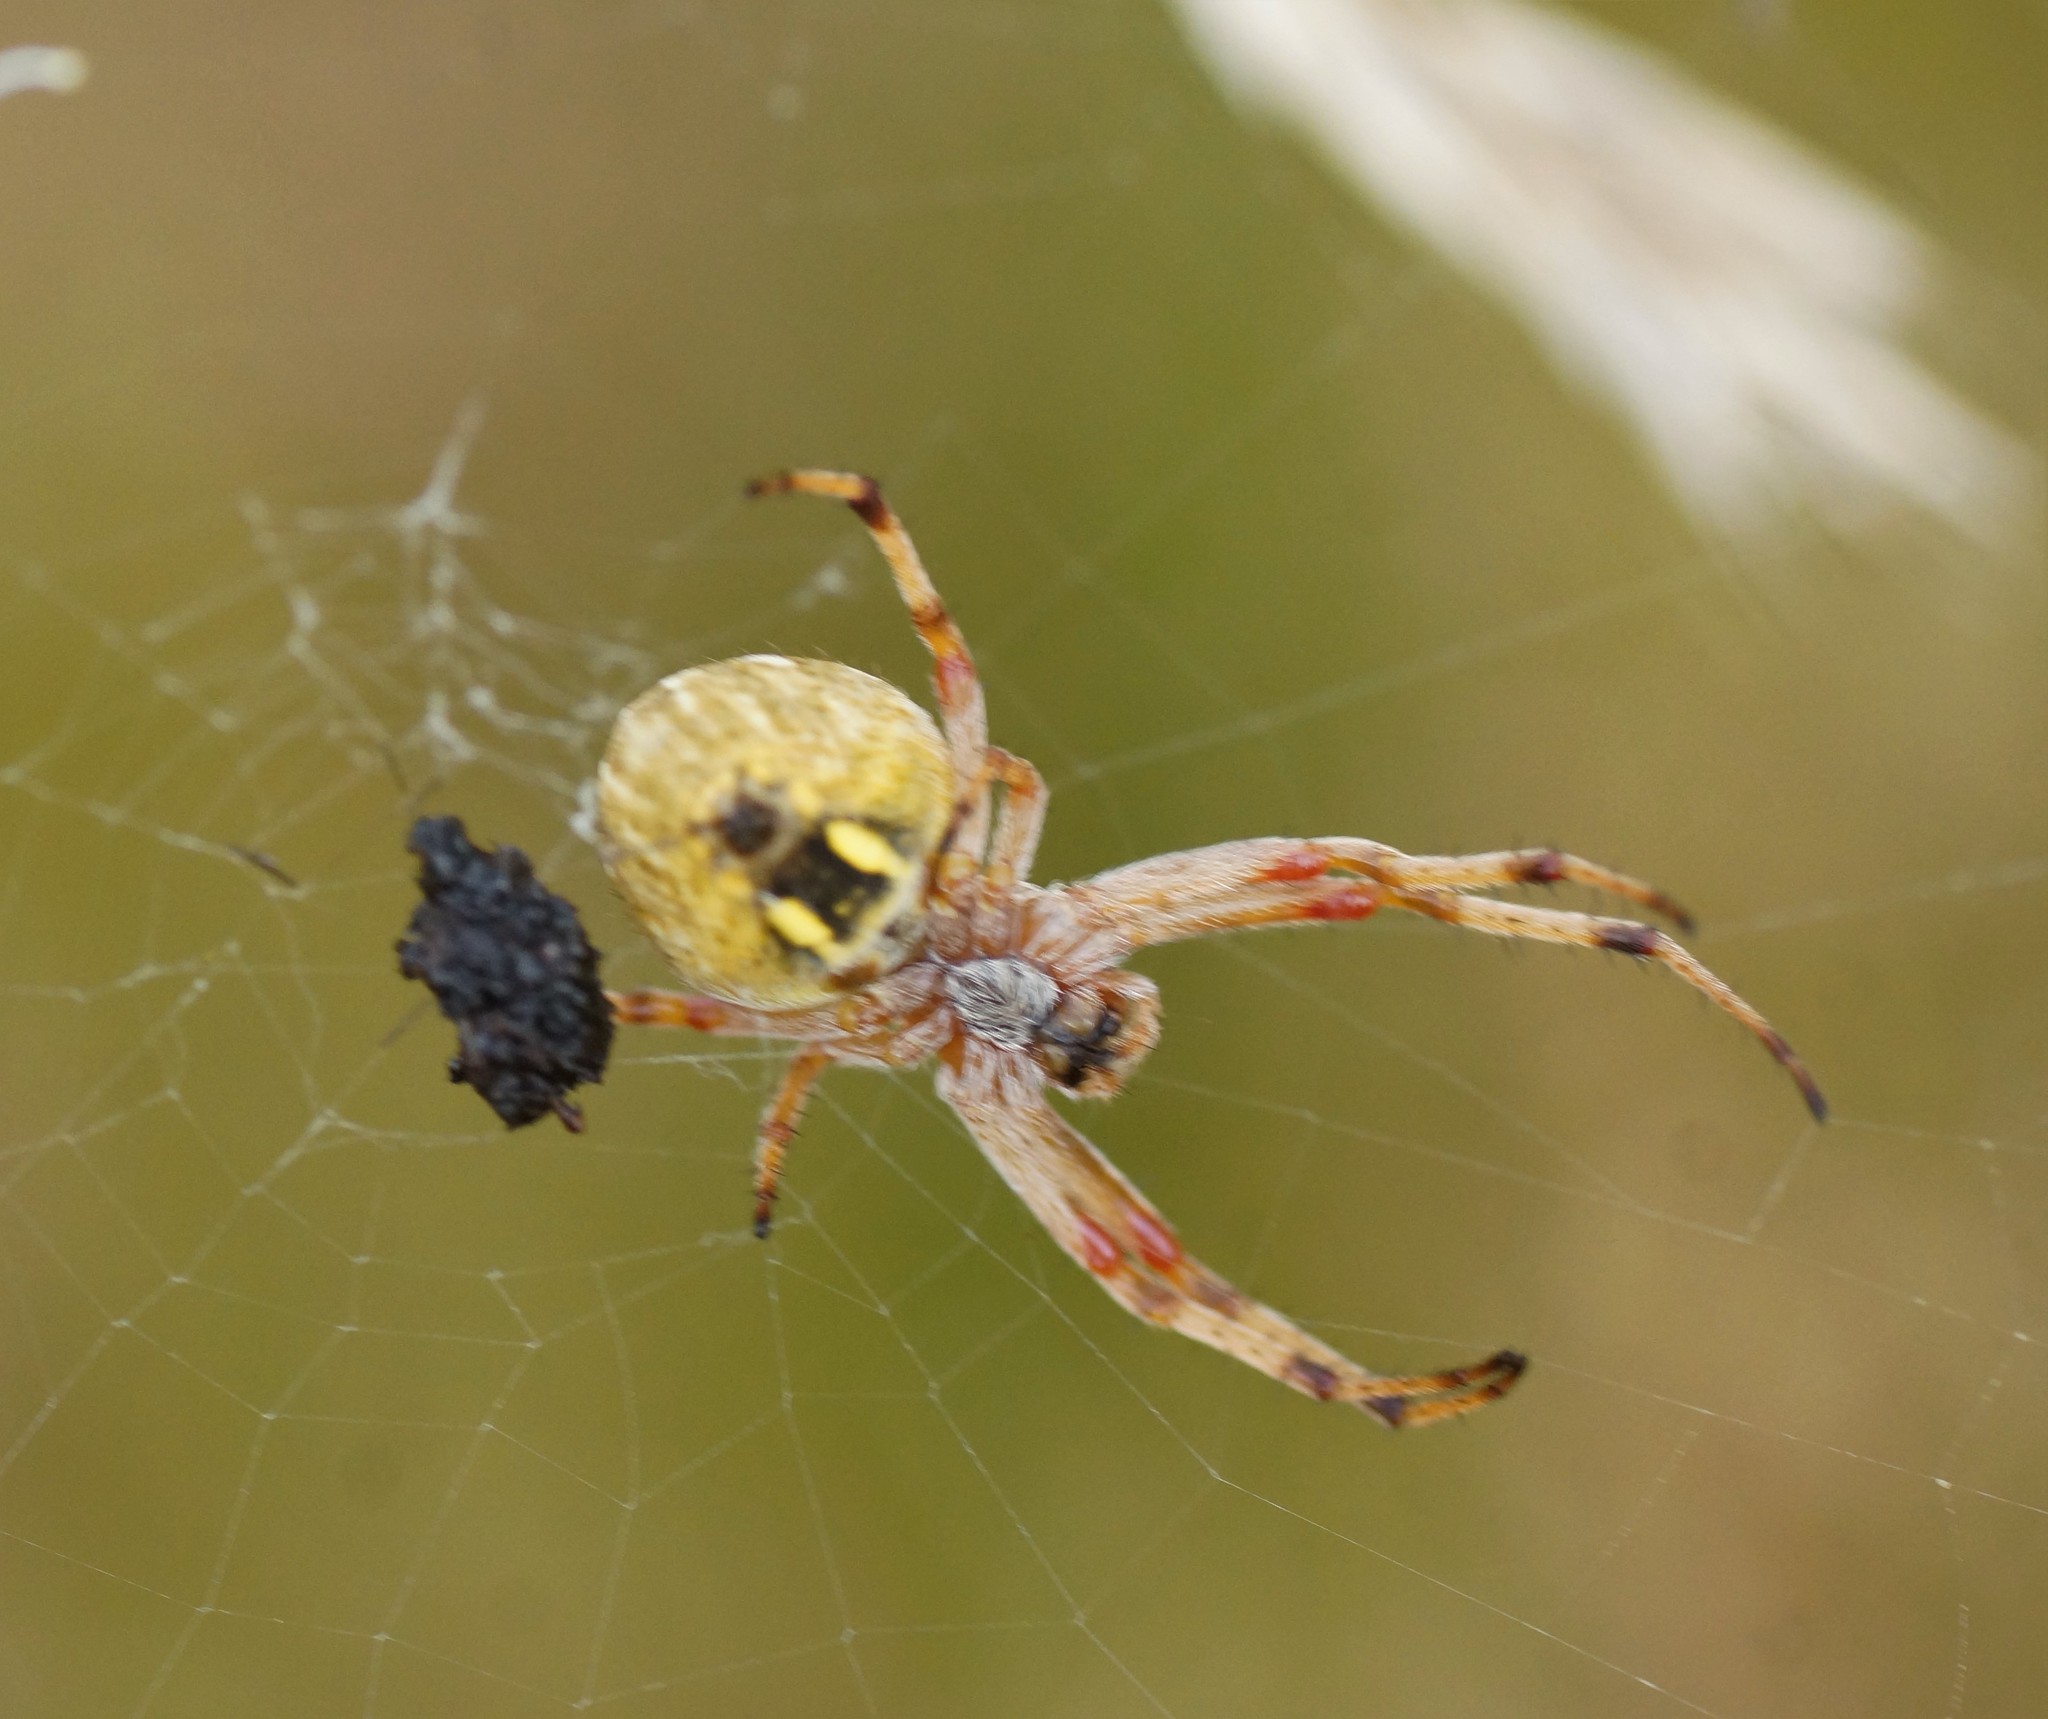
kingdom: Animalia
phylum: Arthropoda
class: Arachnida
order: Araneae
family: Araneidae
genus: Salsa
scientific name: Salsa fuliginata
